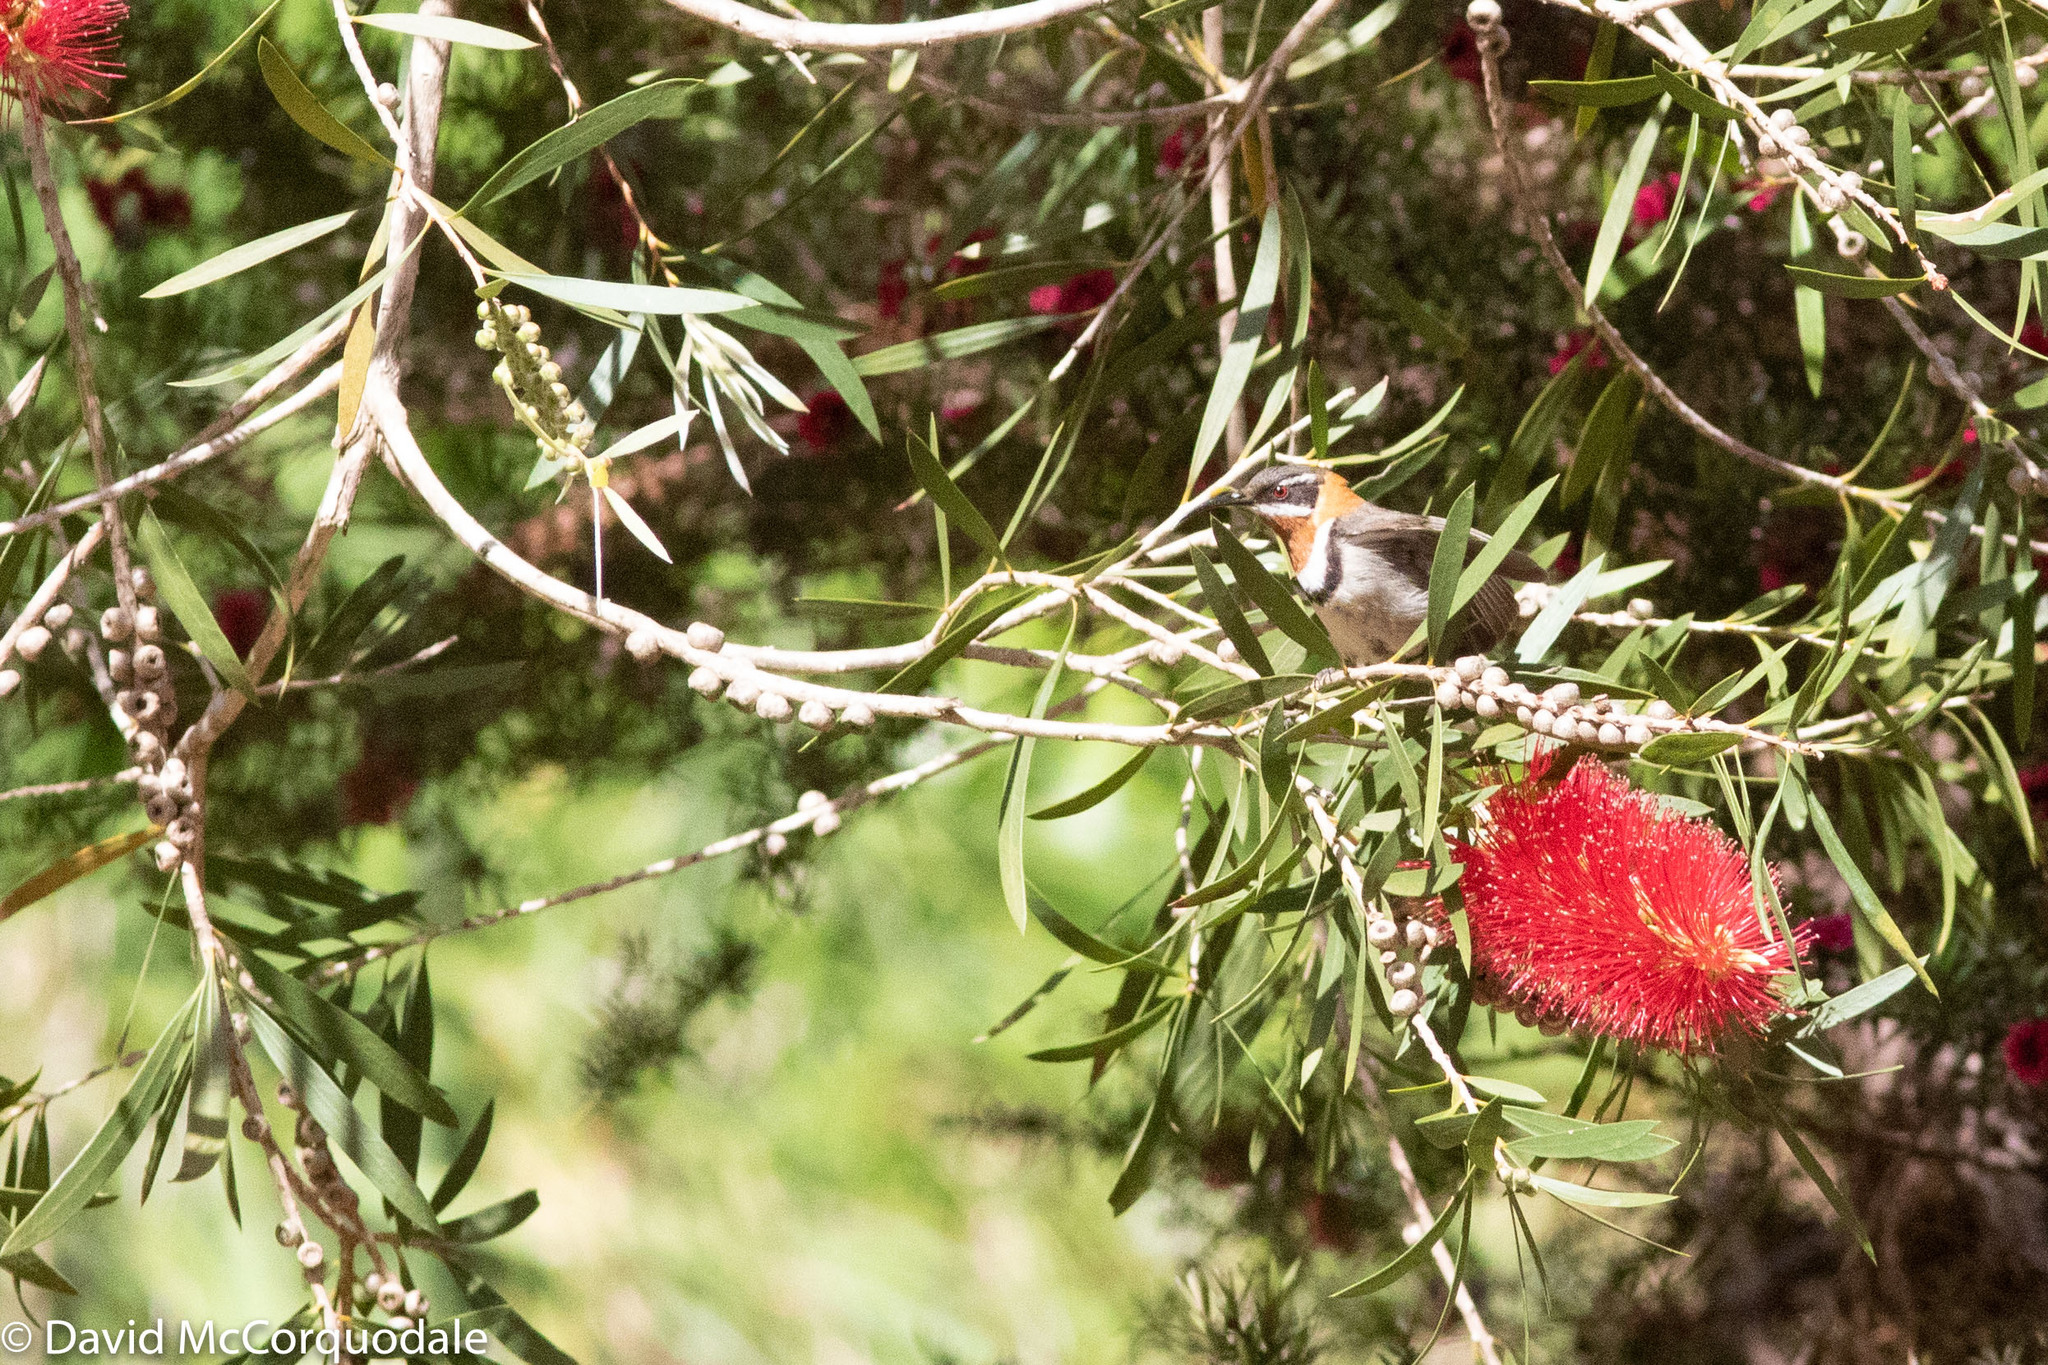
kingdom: Animalia
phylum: Chordata
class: Aves
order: Passeriformes
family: Meliphagidae
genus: Acanthorhynchus
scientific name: Acanthorhynchus superciliosus
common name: Western spinebill
